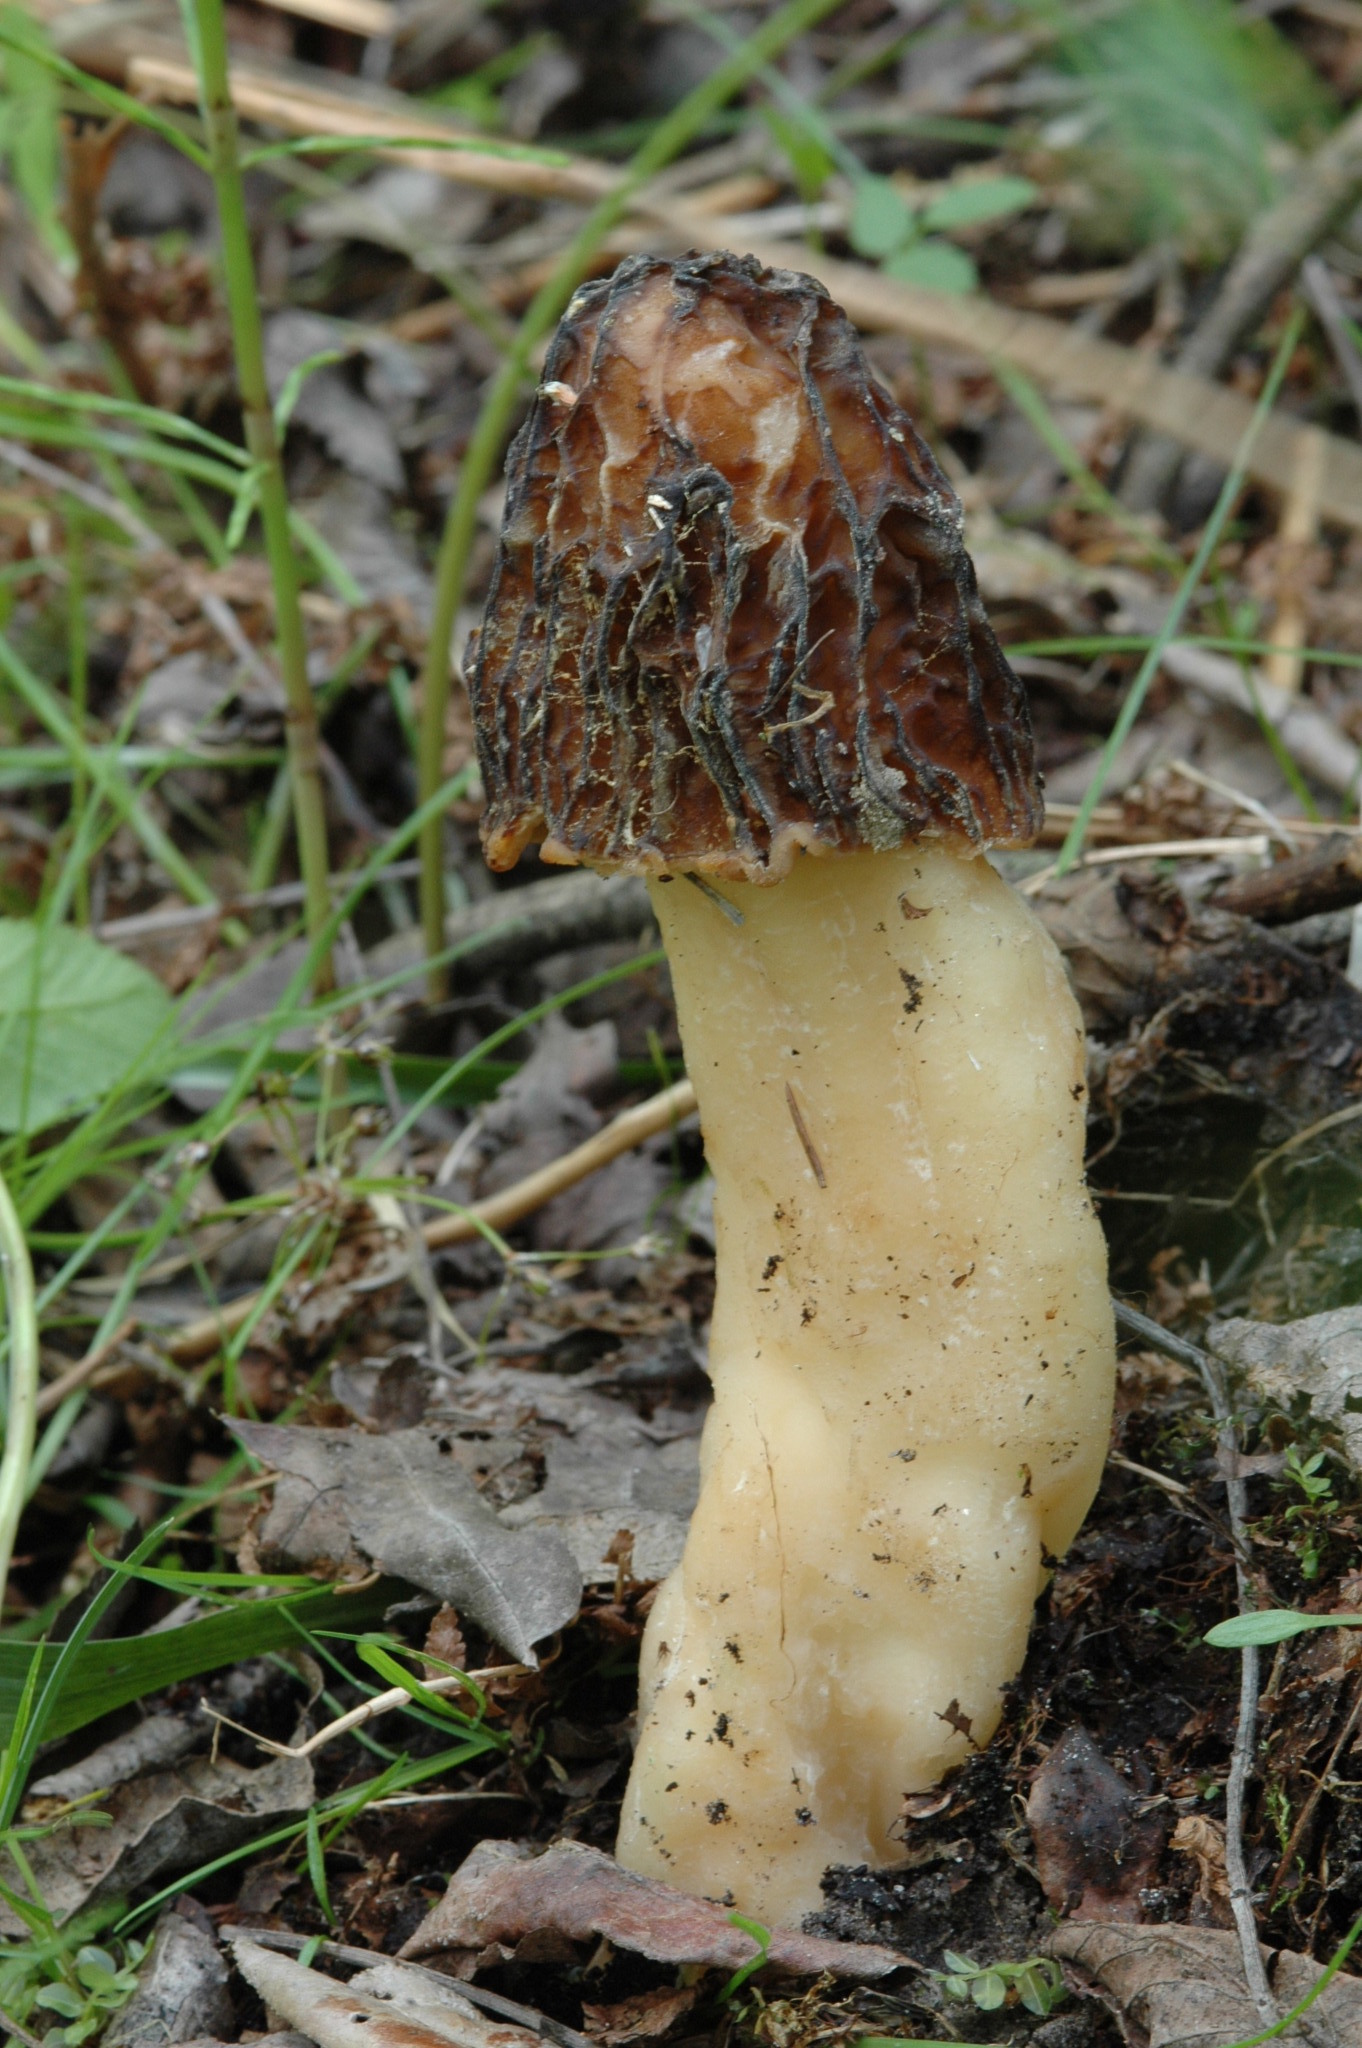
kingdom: Fungi
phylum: Ascomycota
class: Pezizomycetes
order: Pezizales
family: Morchellaceae
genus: Verpa
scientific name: Verpa bohemica
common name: Wrinkled thimble morel
